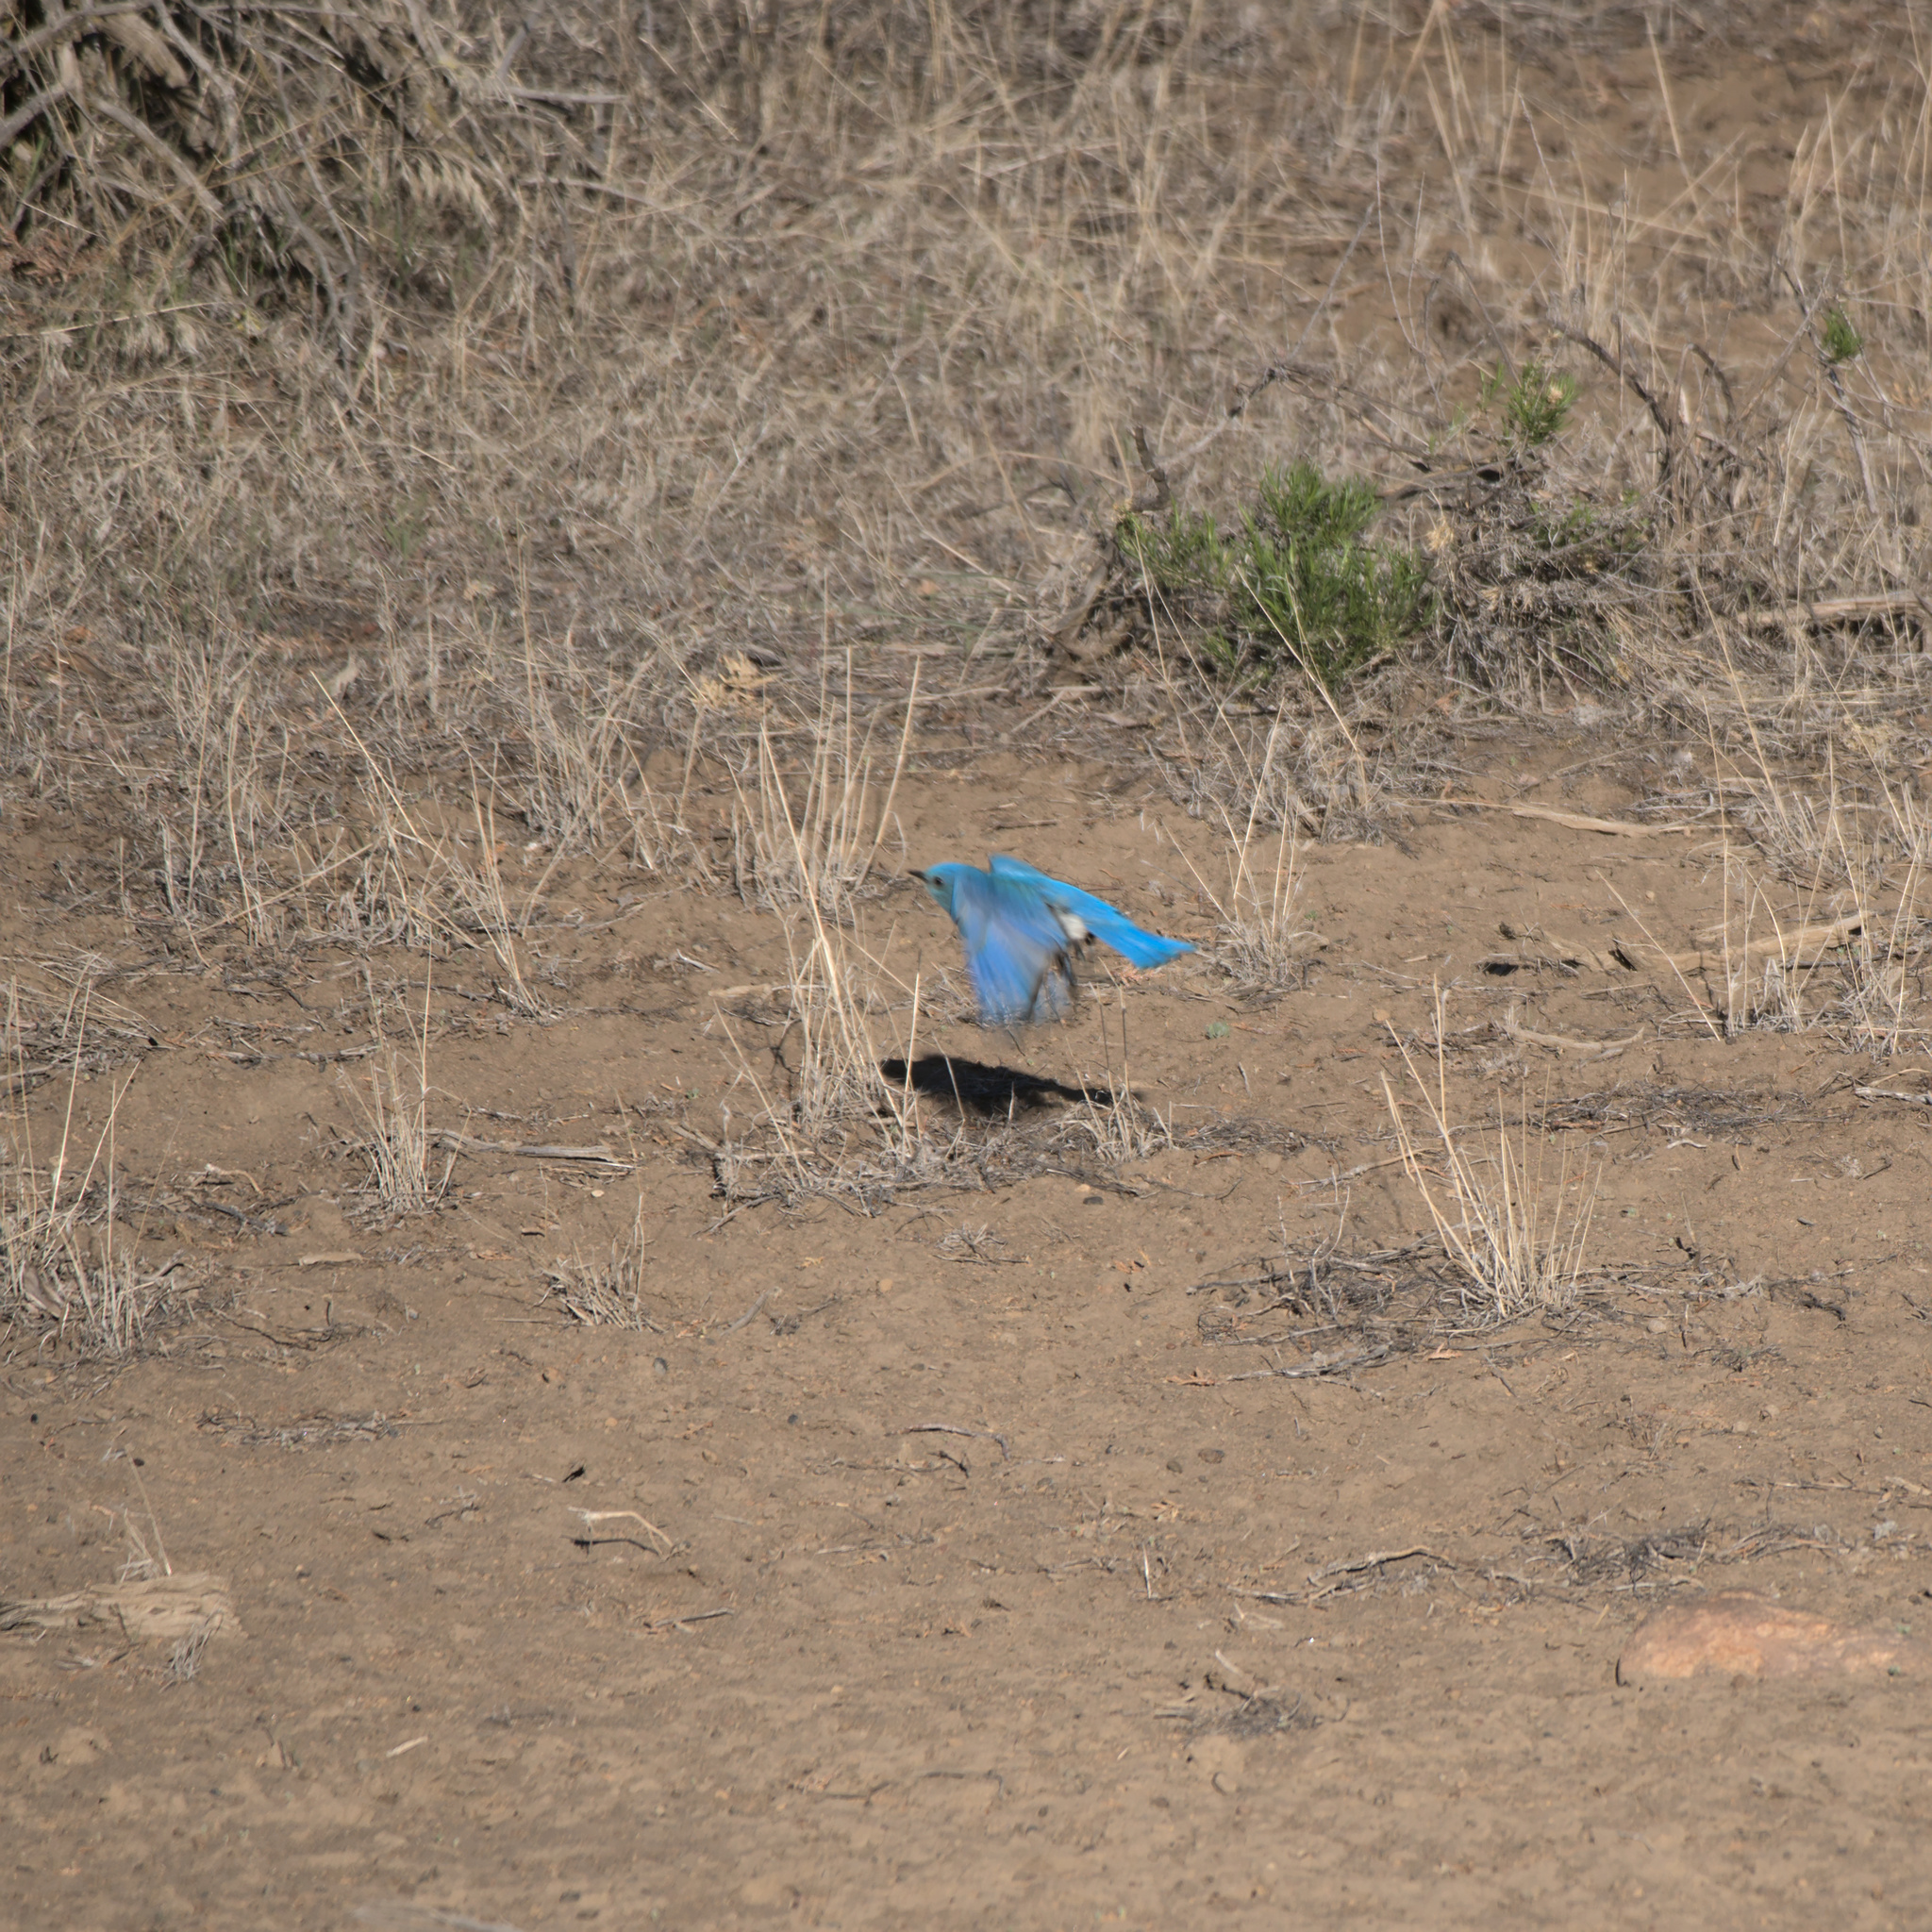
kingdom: Animalia
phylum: Chordata
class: Aves
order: Passeriformes
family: Turdidae
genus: Sialia
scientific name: Sialia currucoides
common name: Mountain bluebird
